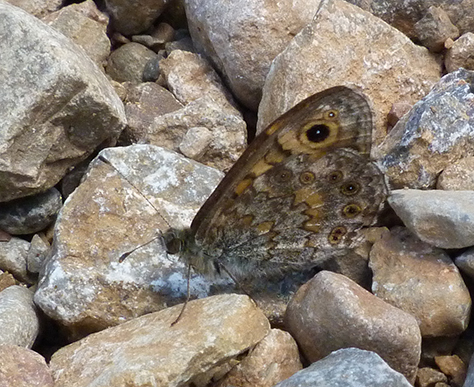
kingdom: Animalia
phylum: Arthropoda
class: Insecta
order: Lepidoptera
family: Nymphalidae
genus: Pararge
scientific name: Pararge Lasiommata megera
